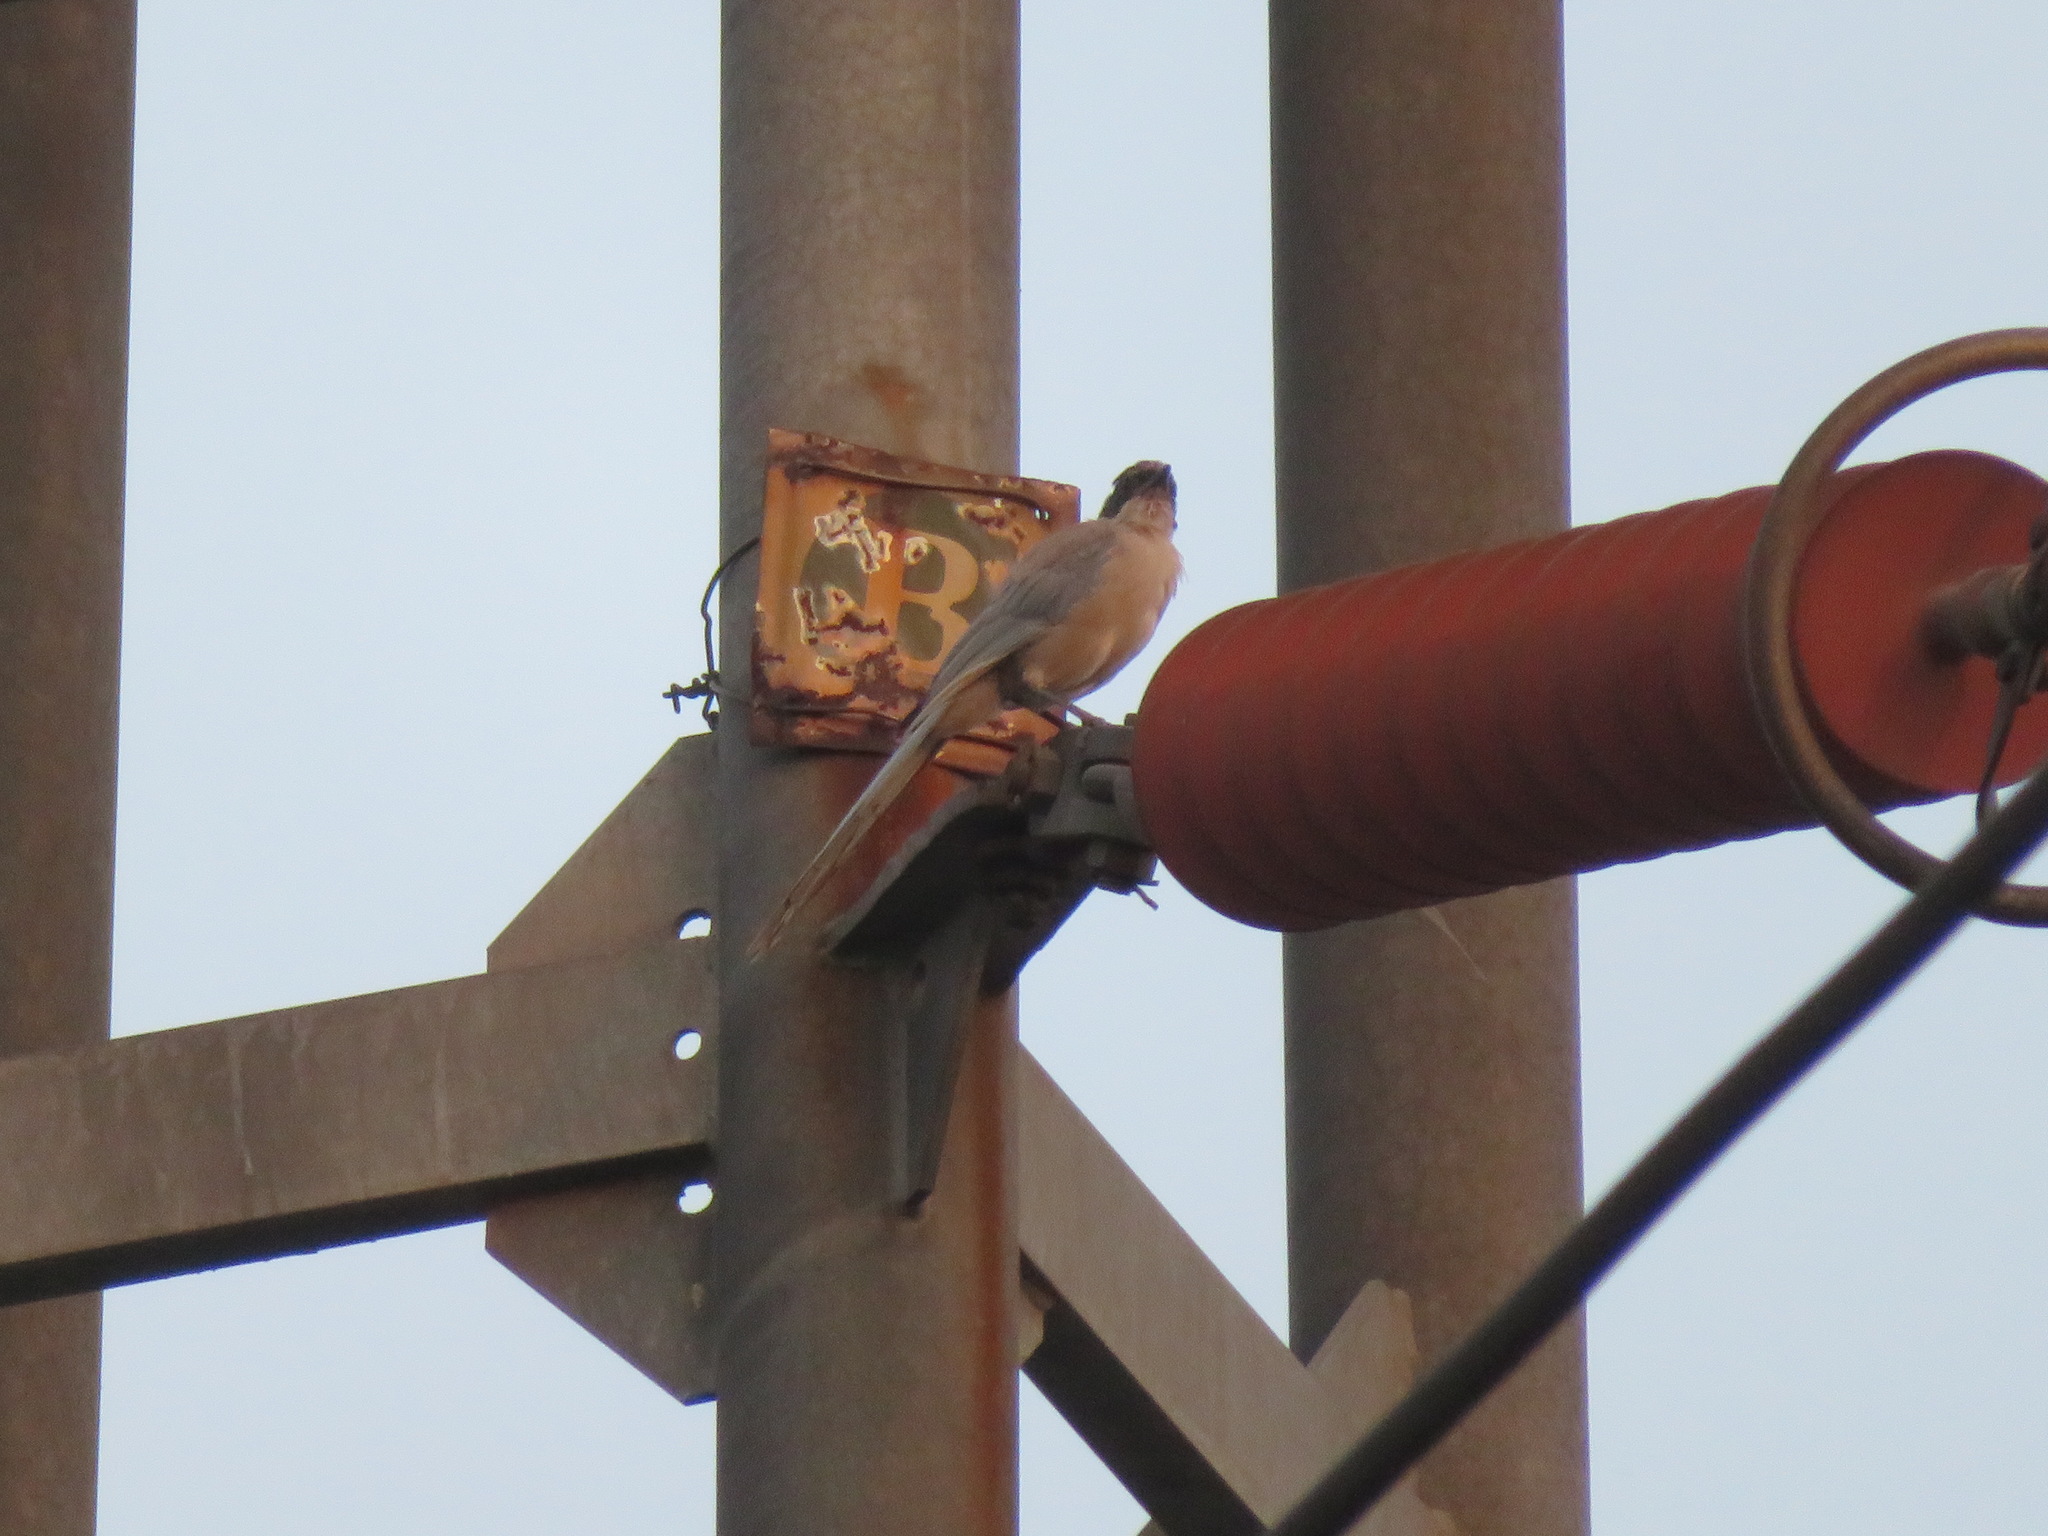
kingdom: Animalia
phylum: Chordata
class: Aves
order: Passeriformes
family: Corvidae
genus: Cyanopica
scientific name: Cyanopica cyanus
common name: Azure-winged magpie
